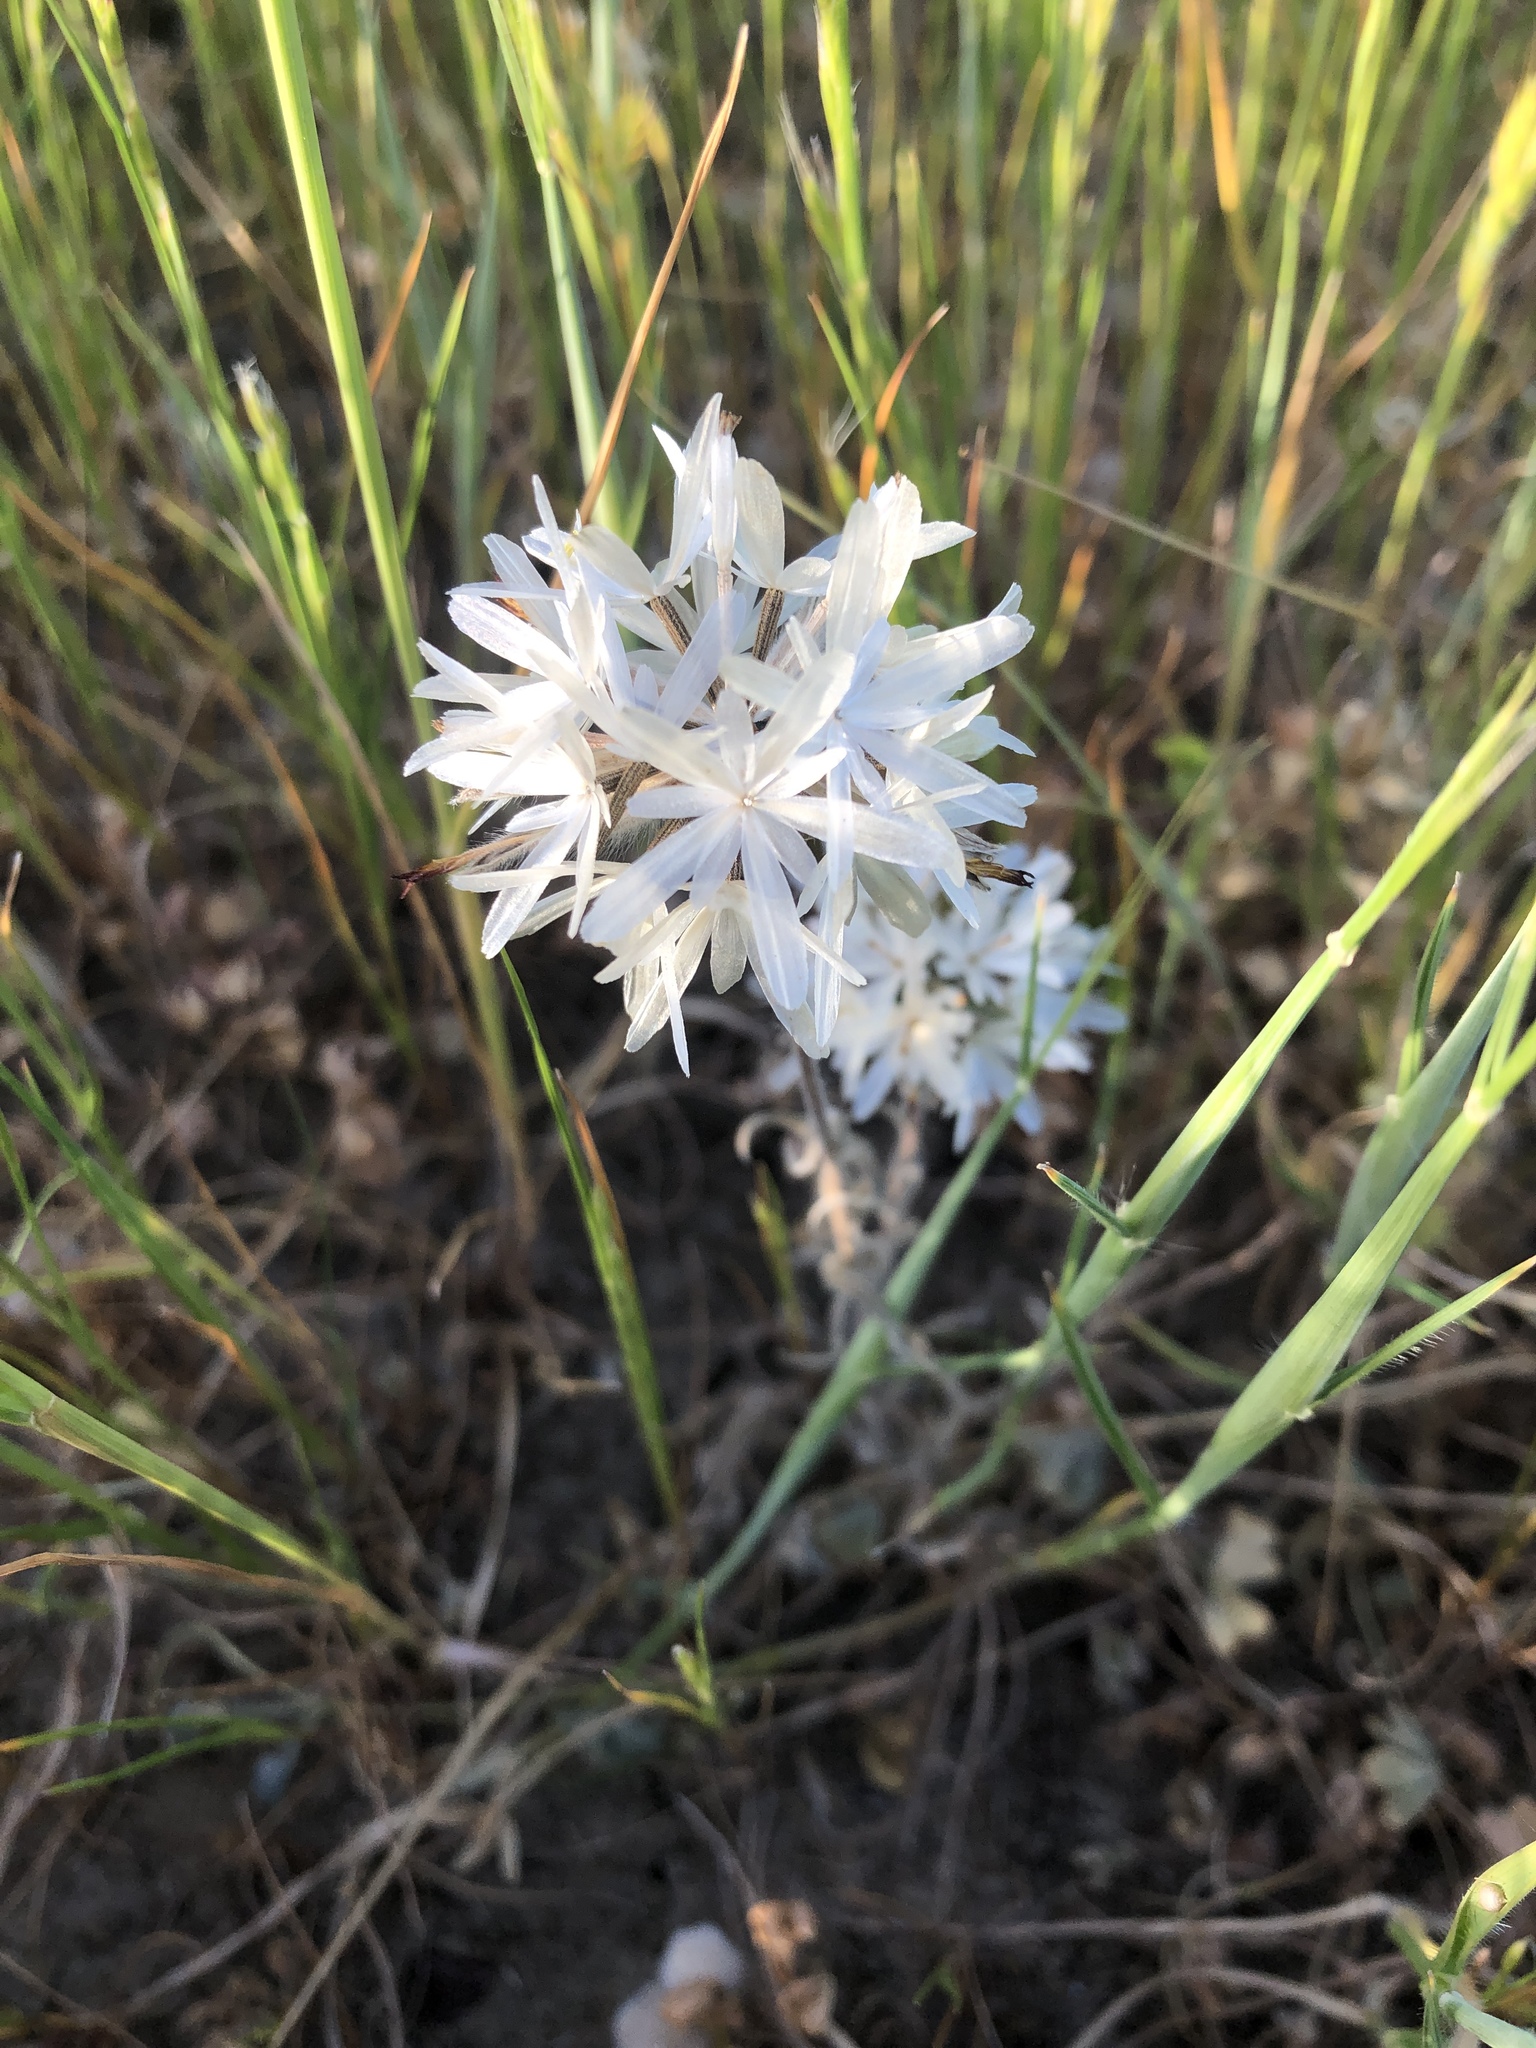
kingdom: Plantae
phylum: Tracheophyta
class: Magnoliopsida
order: Asterales
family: Asteraceae
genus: Achyrachaena
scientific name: Achyrachaena mollis
